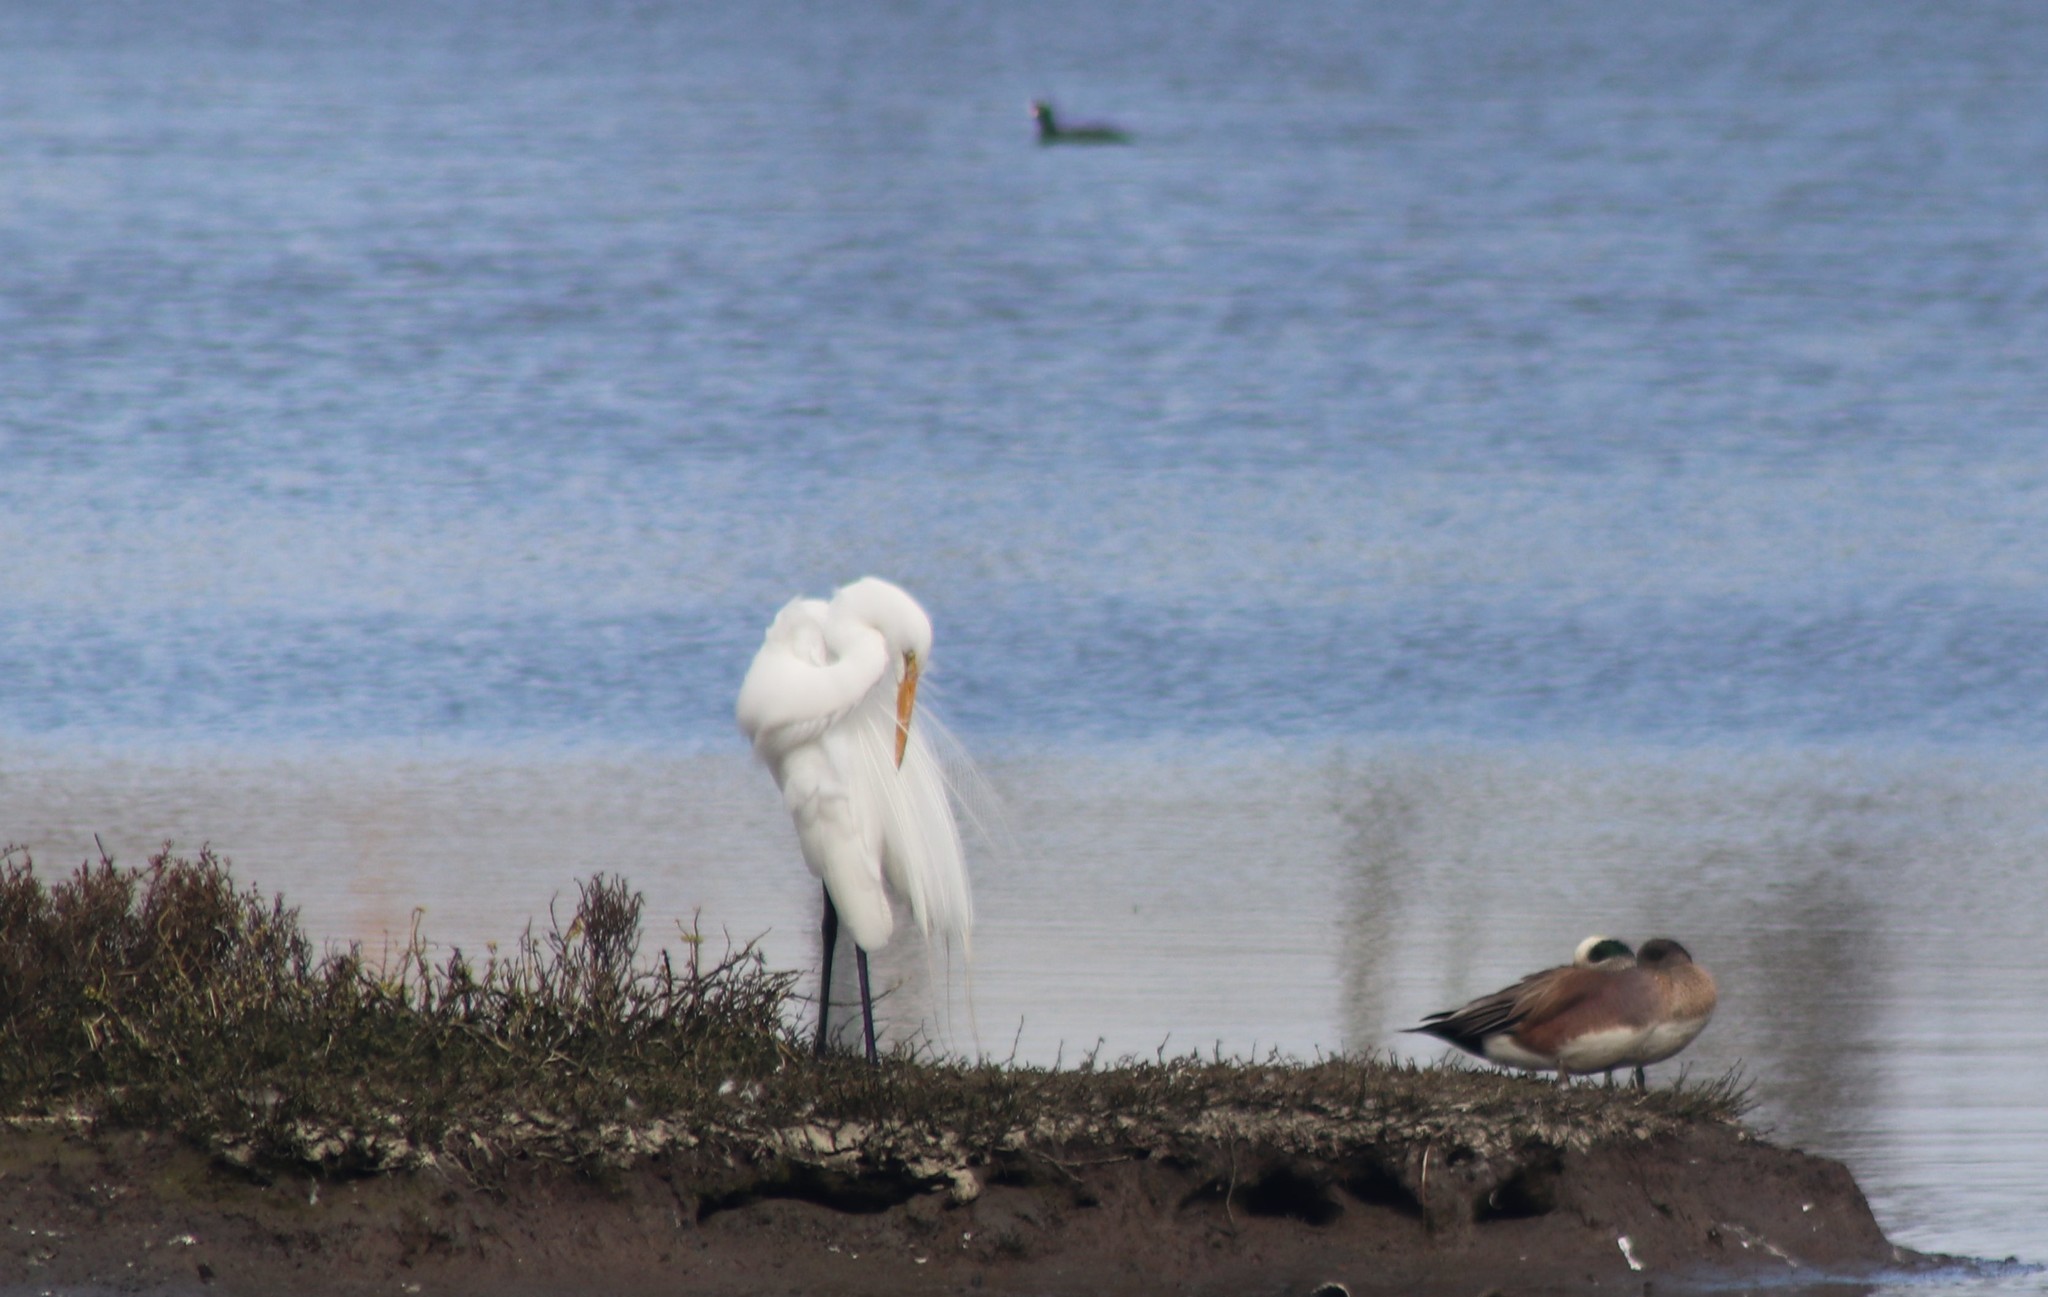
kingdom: Animalia
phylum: Chordata
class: Aves
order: Pelecaniformes
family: Ardeidae
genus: Ardea
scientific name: Ardea alba
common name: Great egret
